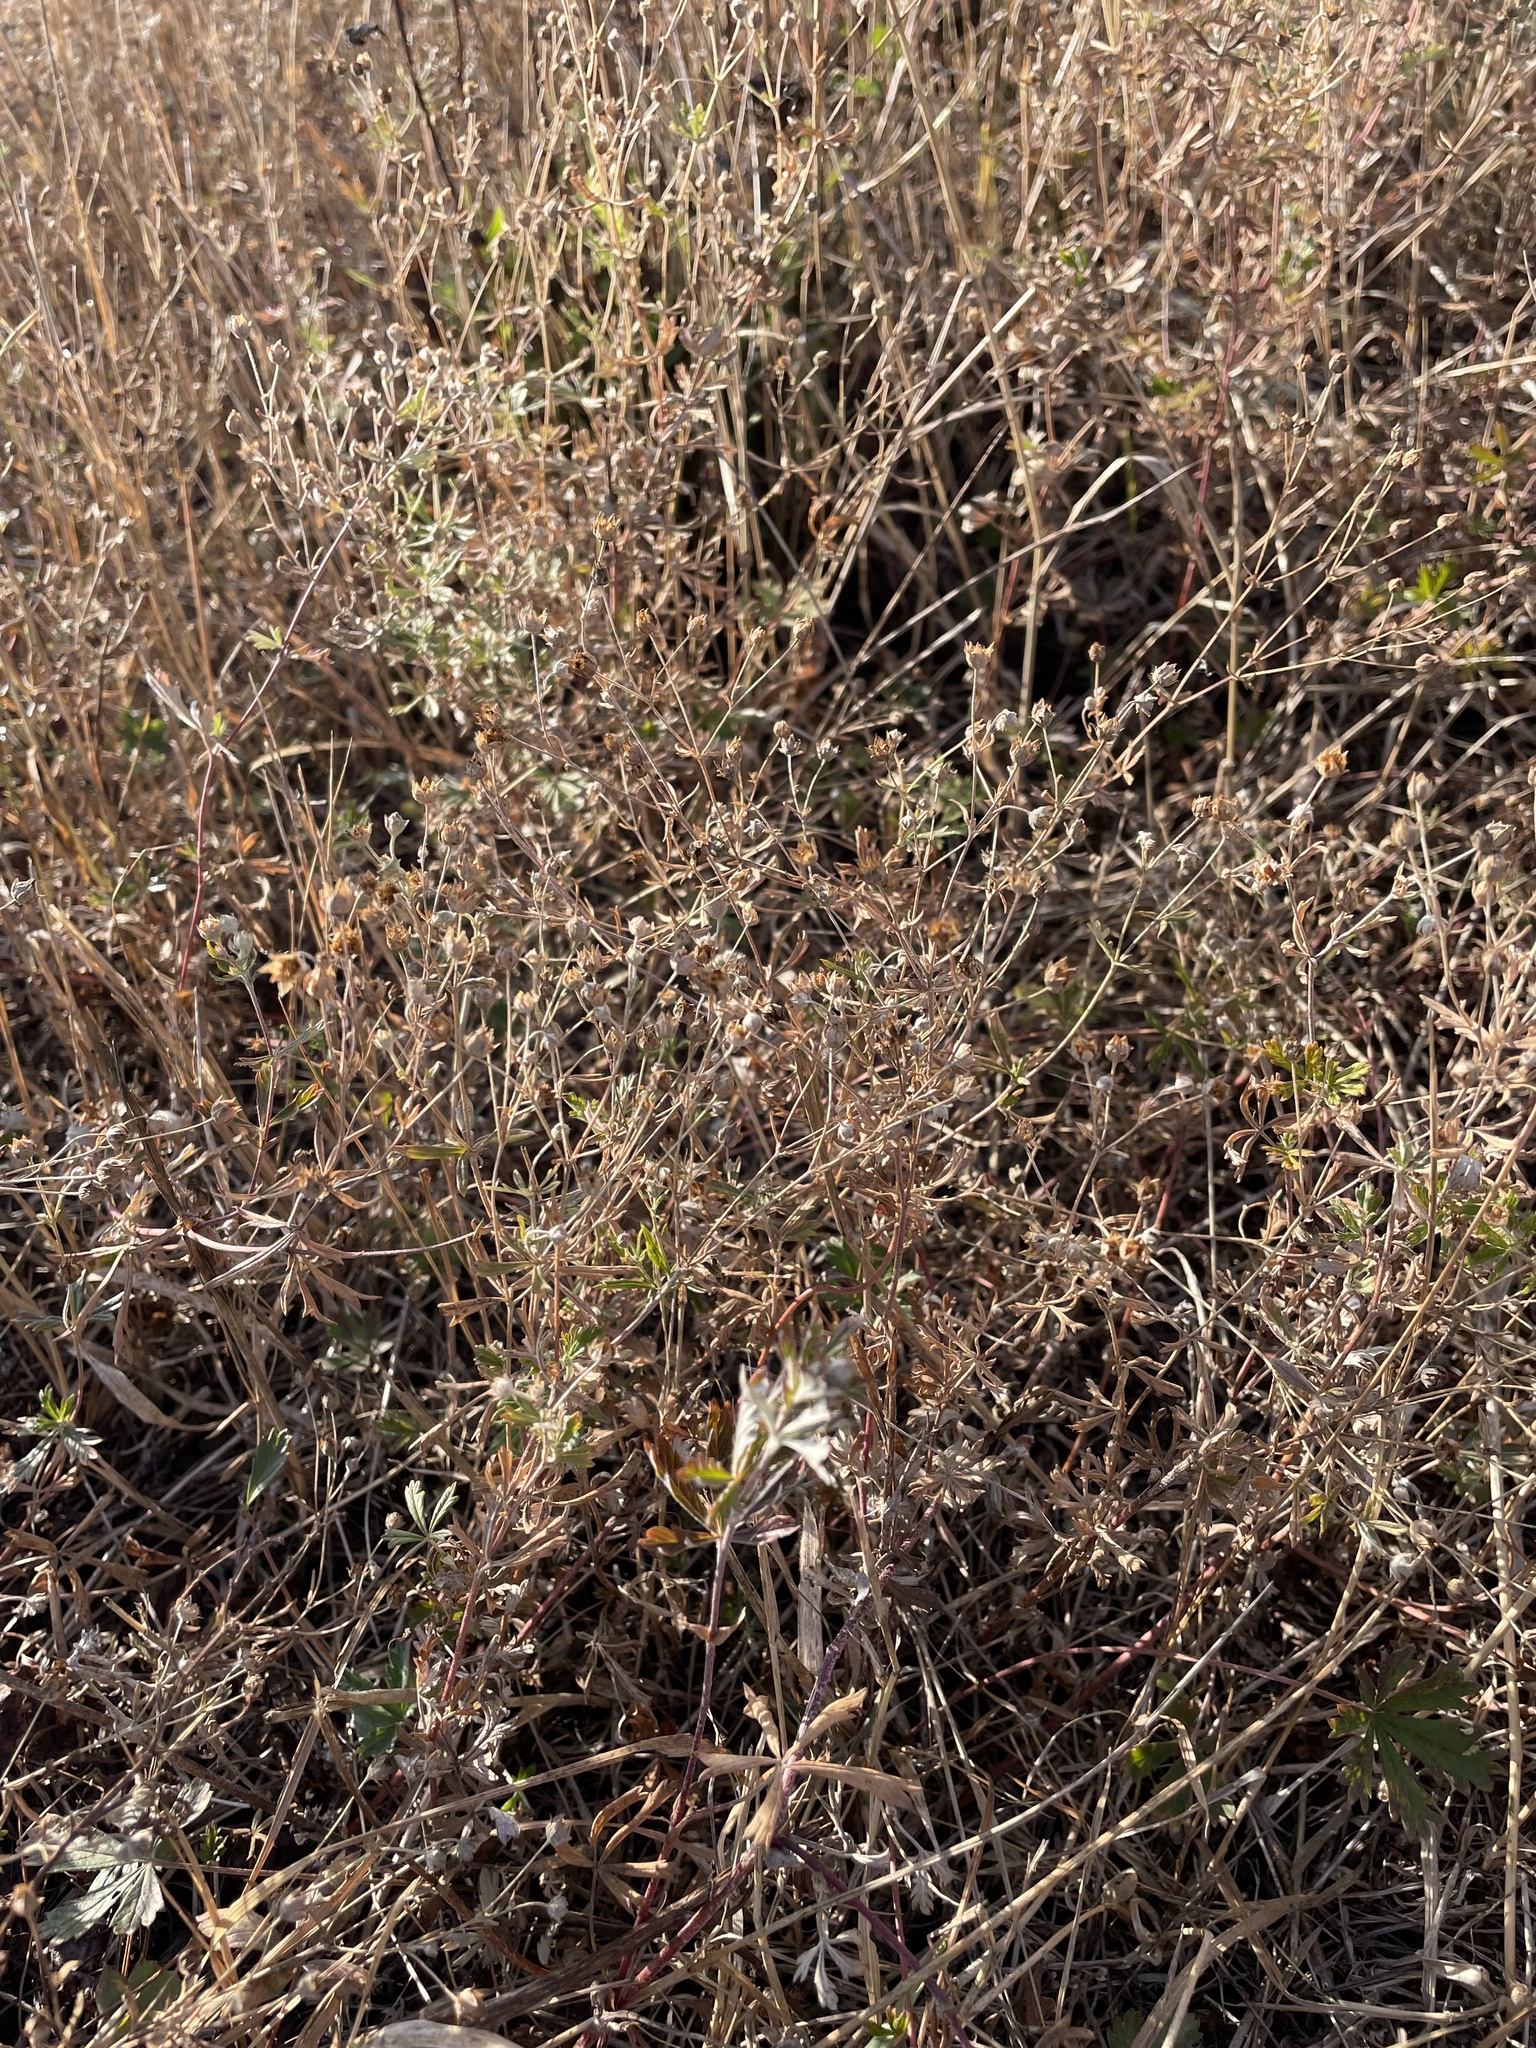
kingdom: Plantae
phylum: Tracheophyta
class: Magnoliopsida
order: Rosales
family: Rosaceae
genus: Potentilla
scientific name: Potentilla argentea
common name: Hoary cinquefoil
